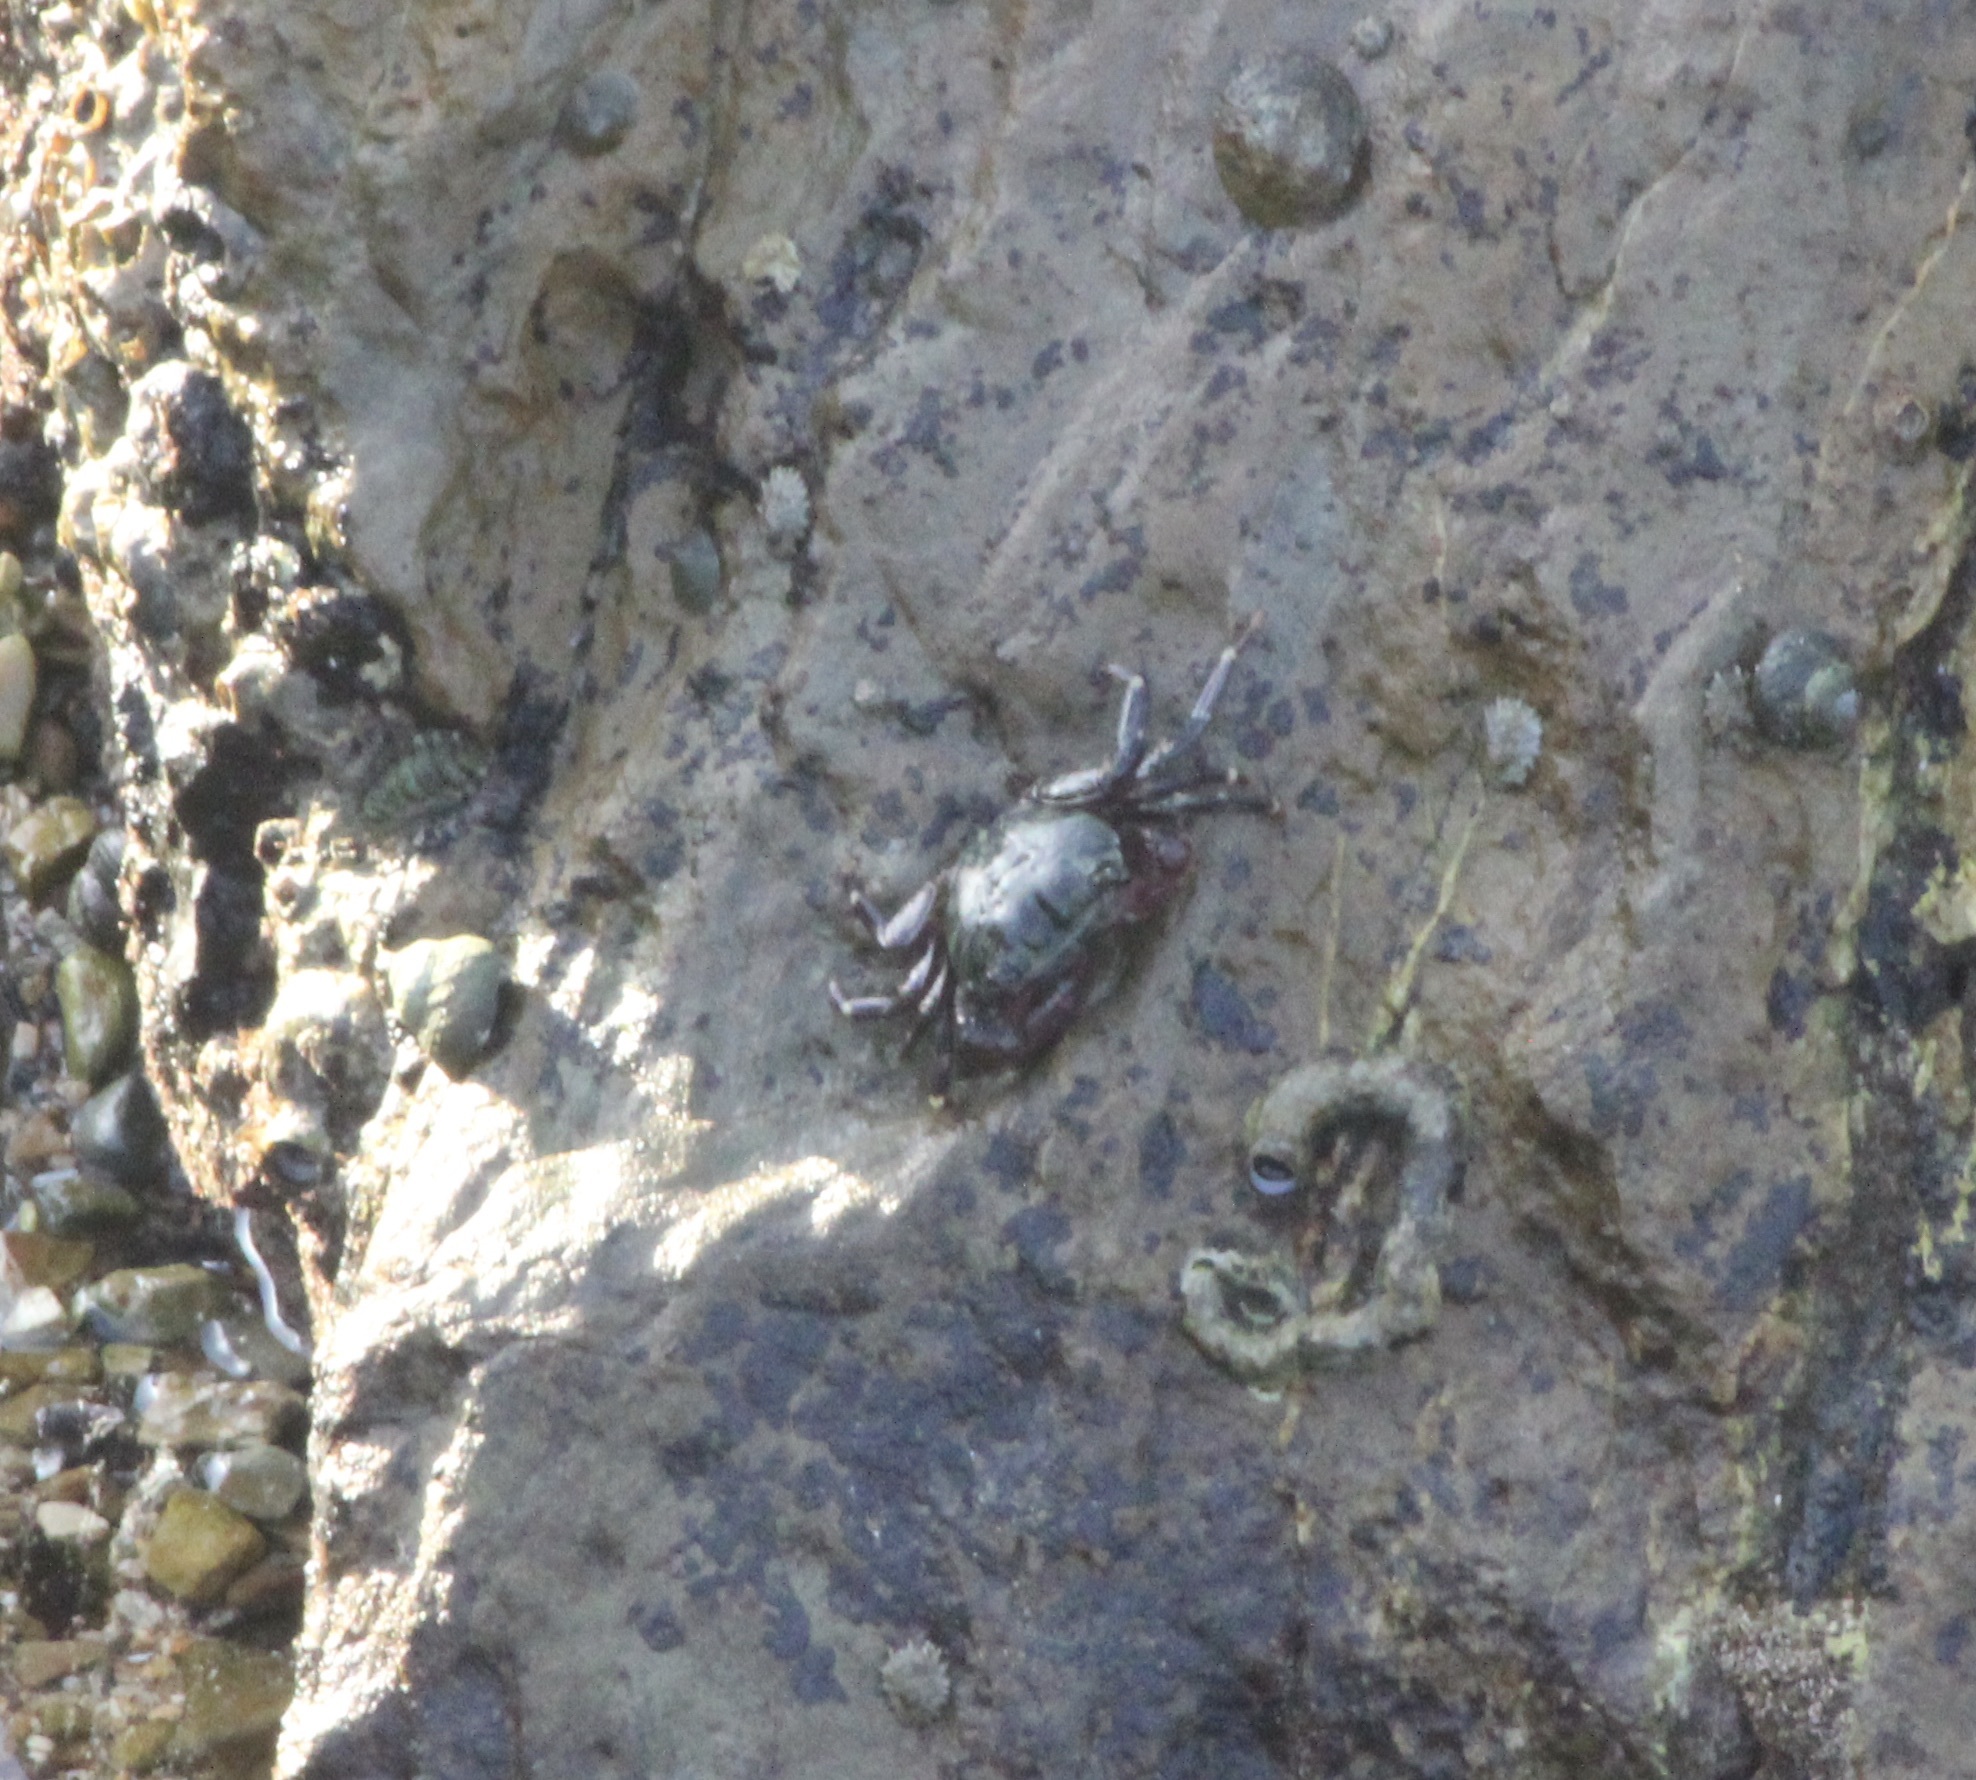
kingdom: Animalia
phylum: Arthropoda
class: Malacostraca
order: Decapoda
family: Grapsidae
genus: Pachygrapsus
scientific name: Pachygrapsus crassipes
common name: Striped shore crab
